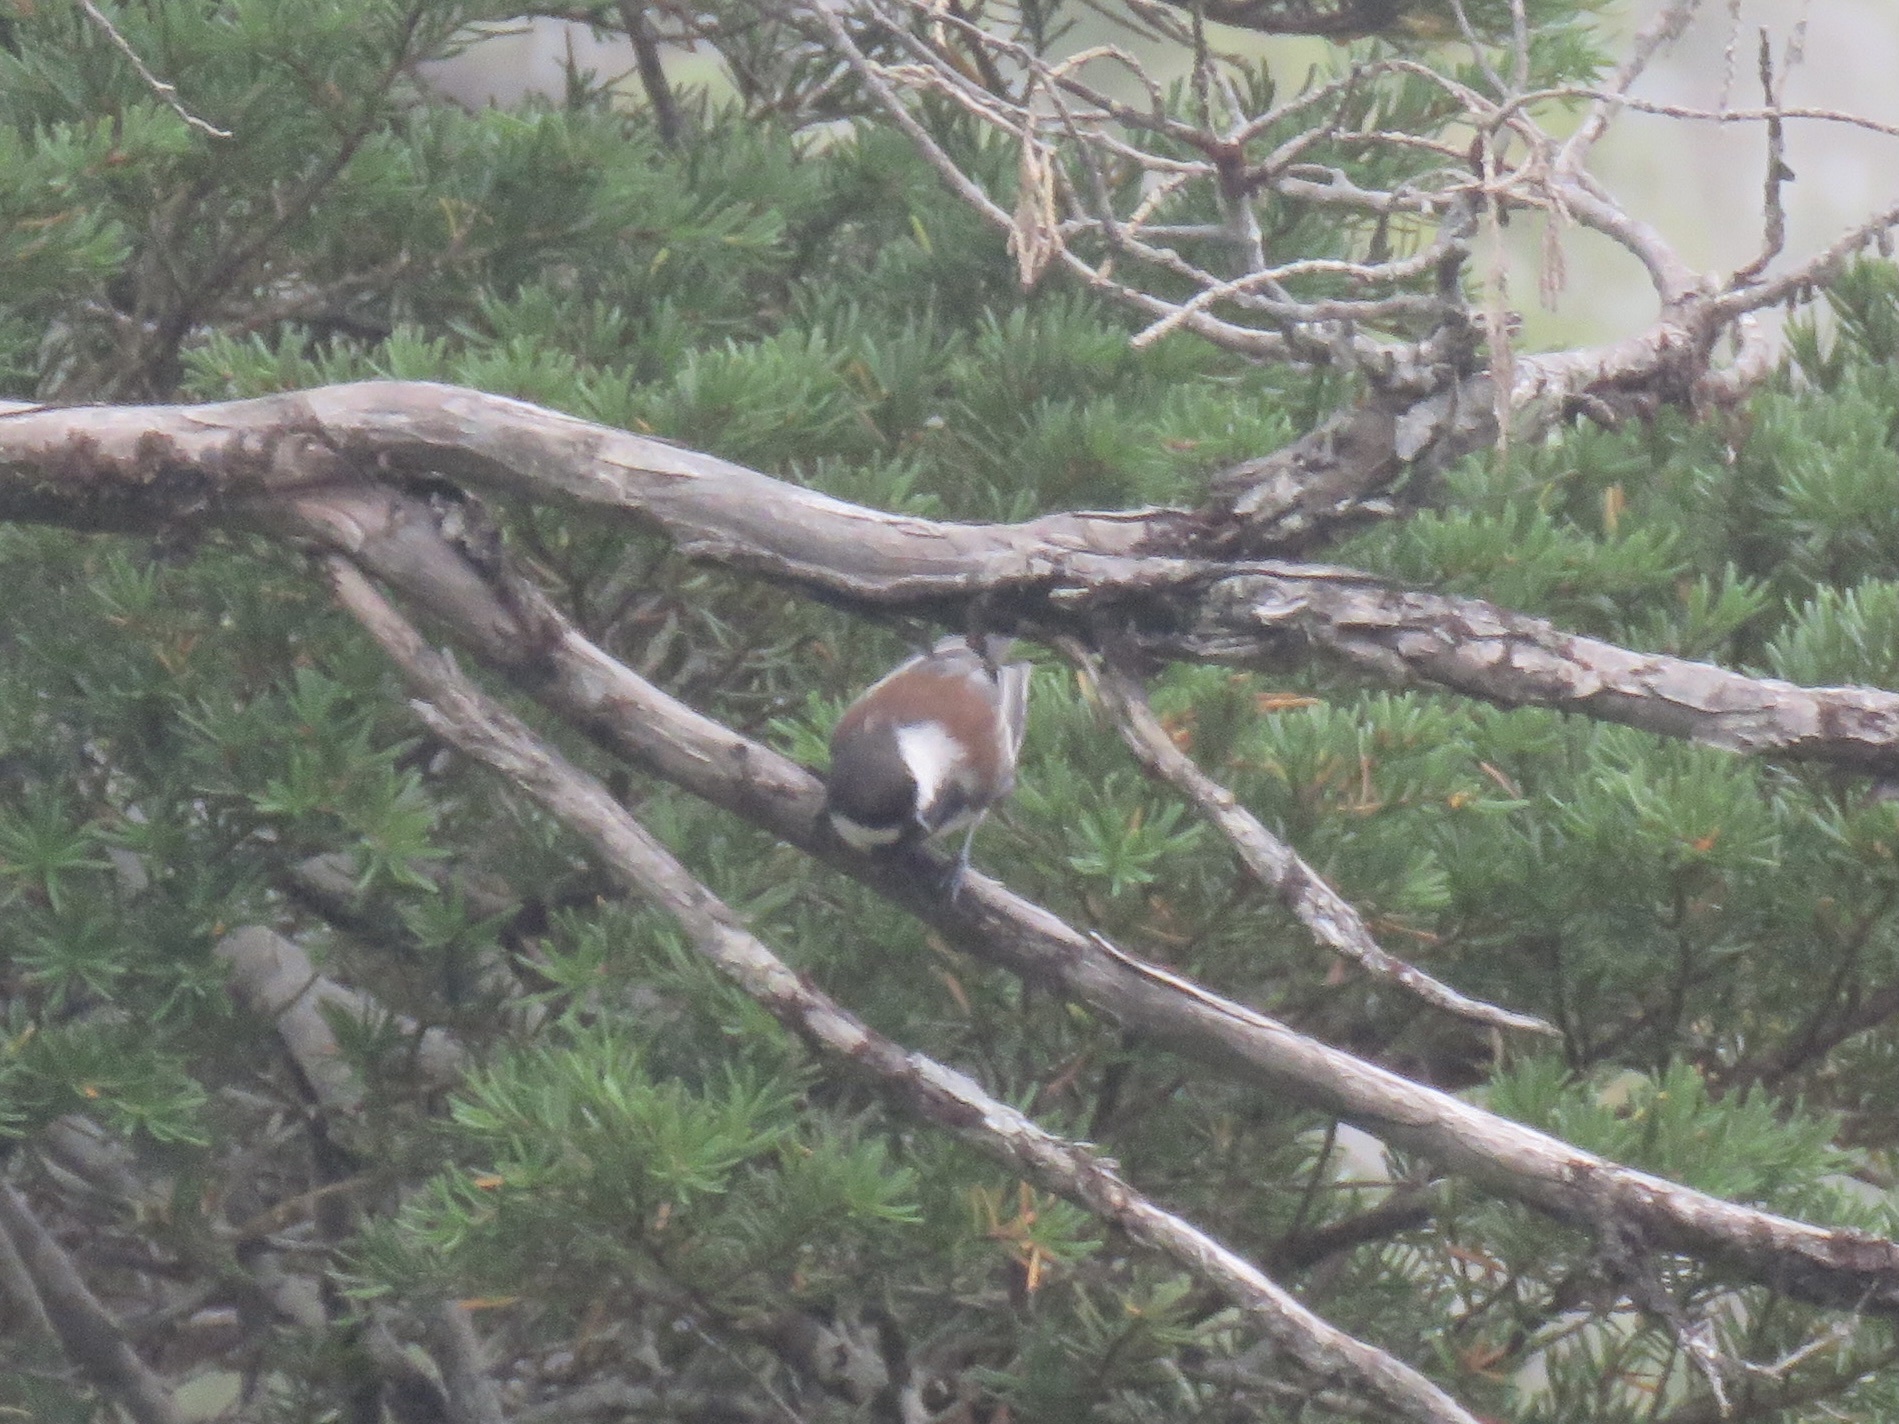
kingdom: Animalia
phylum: Chordata
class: Aves
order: Passeriformes
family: Paridae
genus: Poecile
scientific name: Poecile rufescens
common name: Chestnut-backed chickadee
